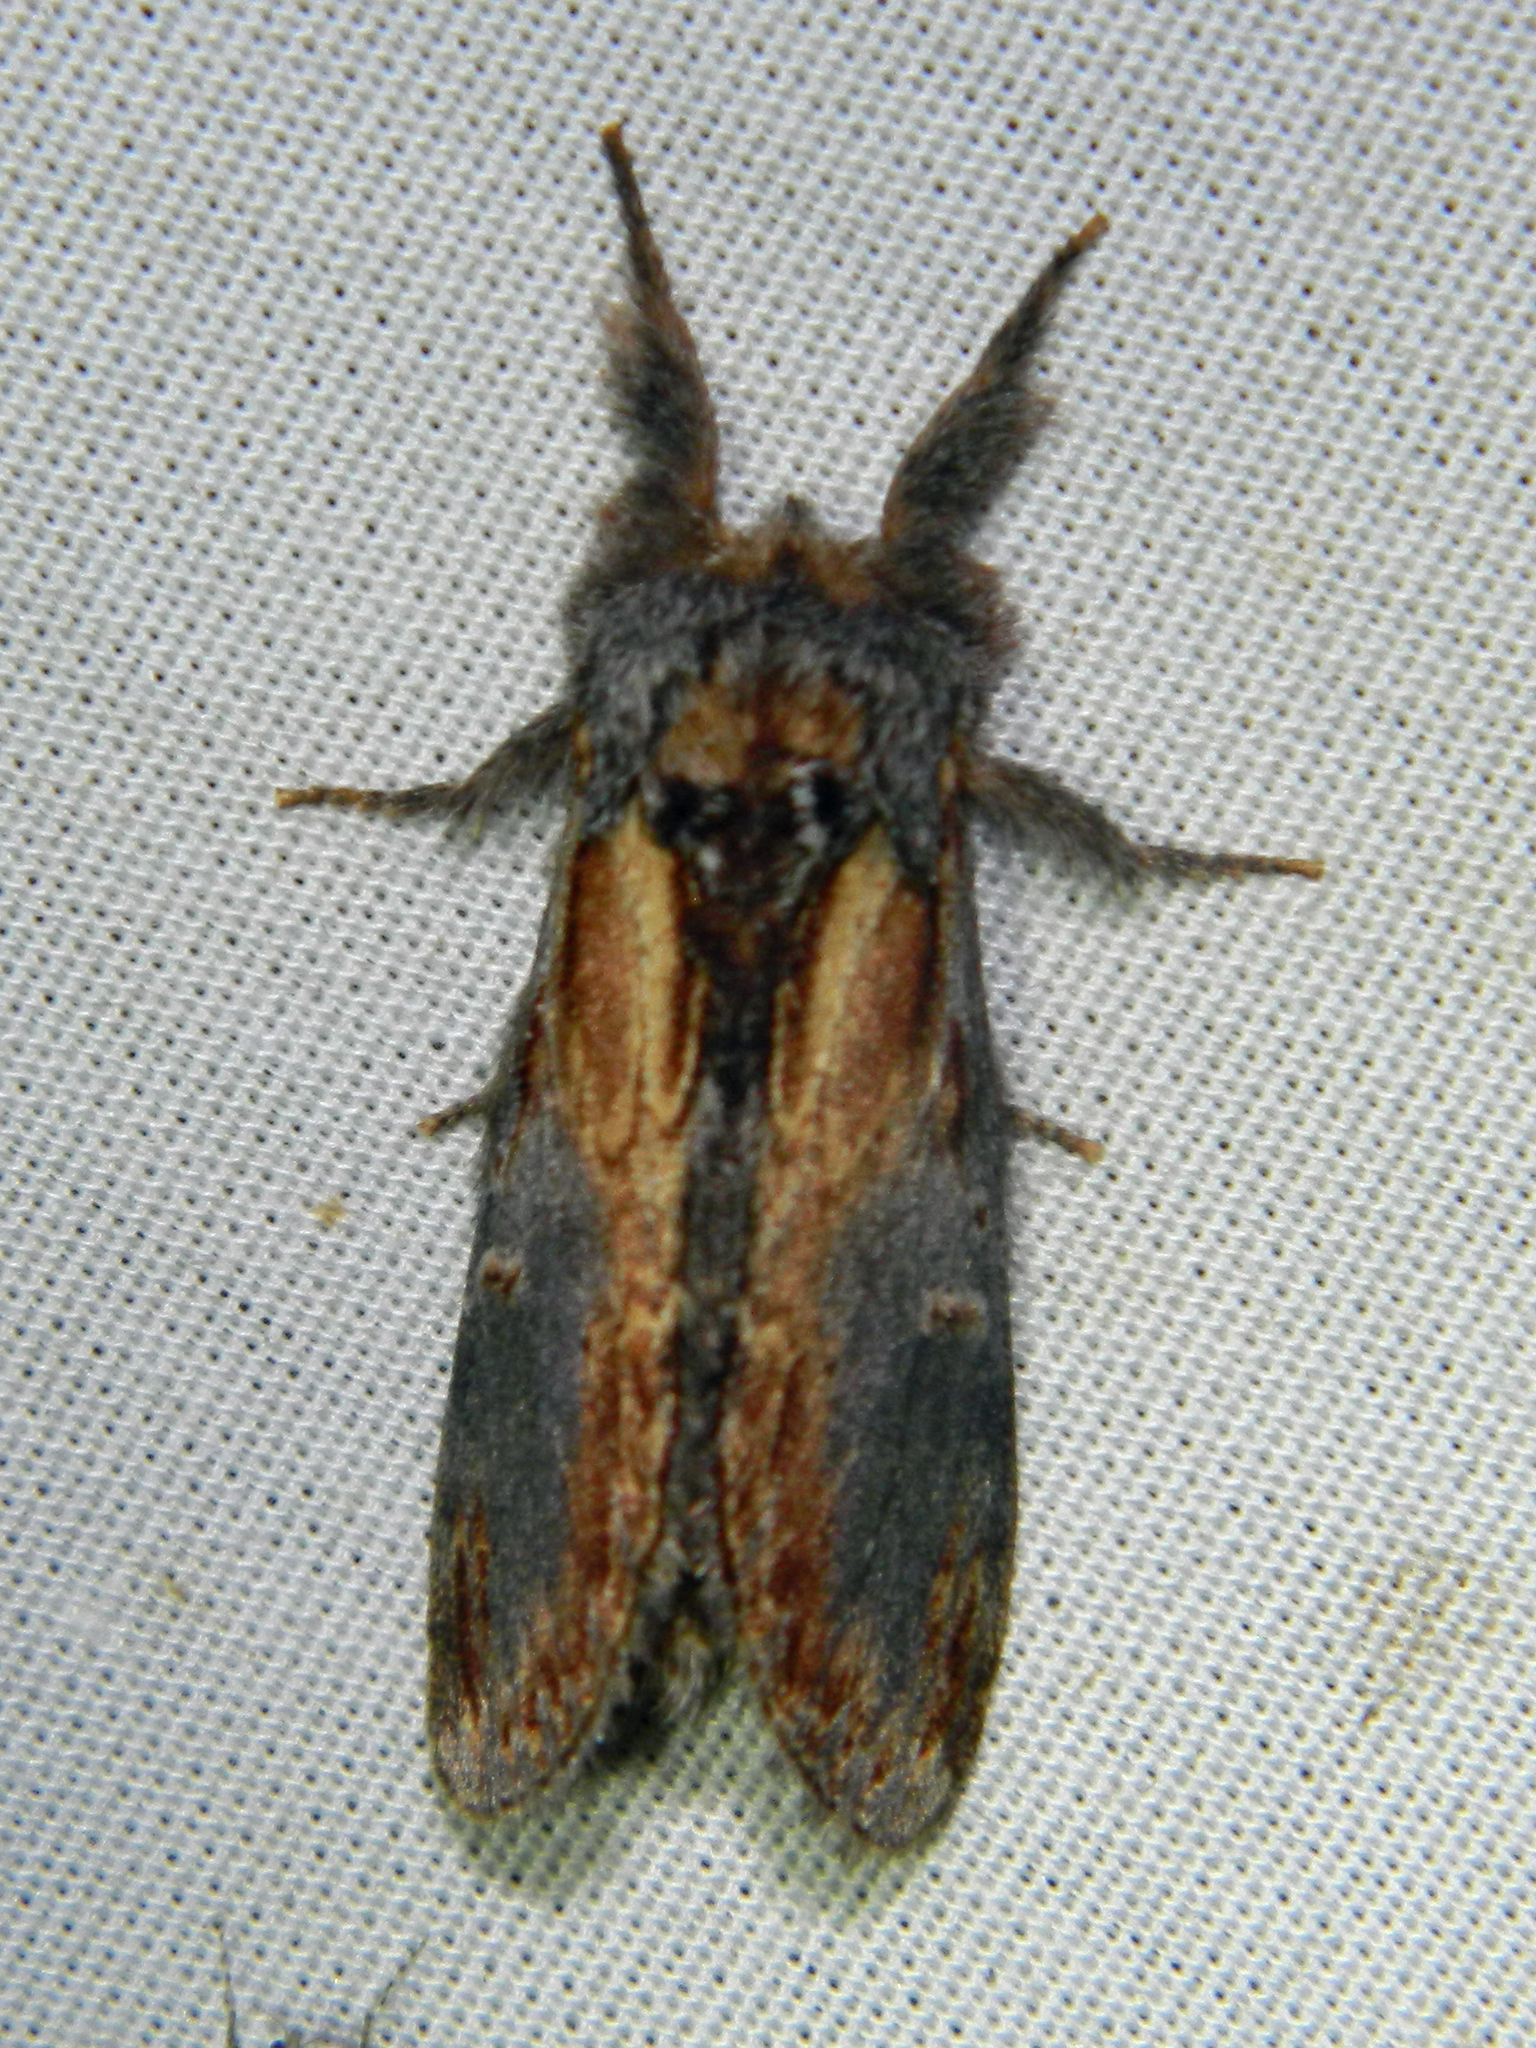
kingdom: Animalia
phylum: Arthropoda
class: Insecta
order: Lepidoptera
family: Notodontidae
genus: Notodonta
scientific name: Notodonta scitipennis
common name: Finned-willow prominent moth
